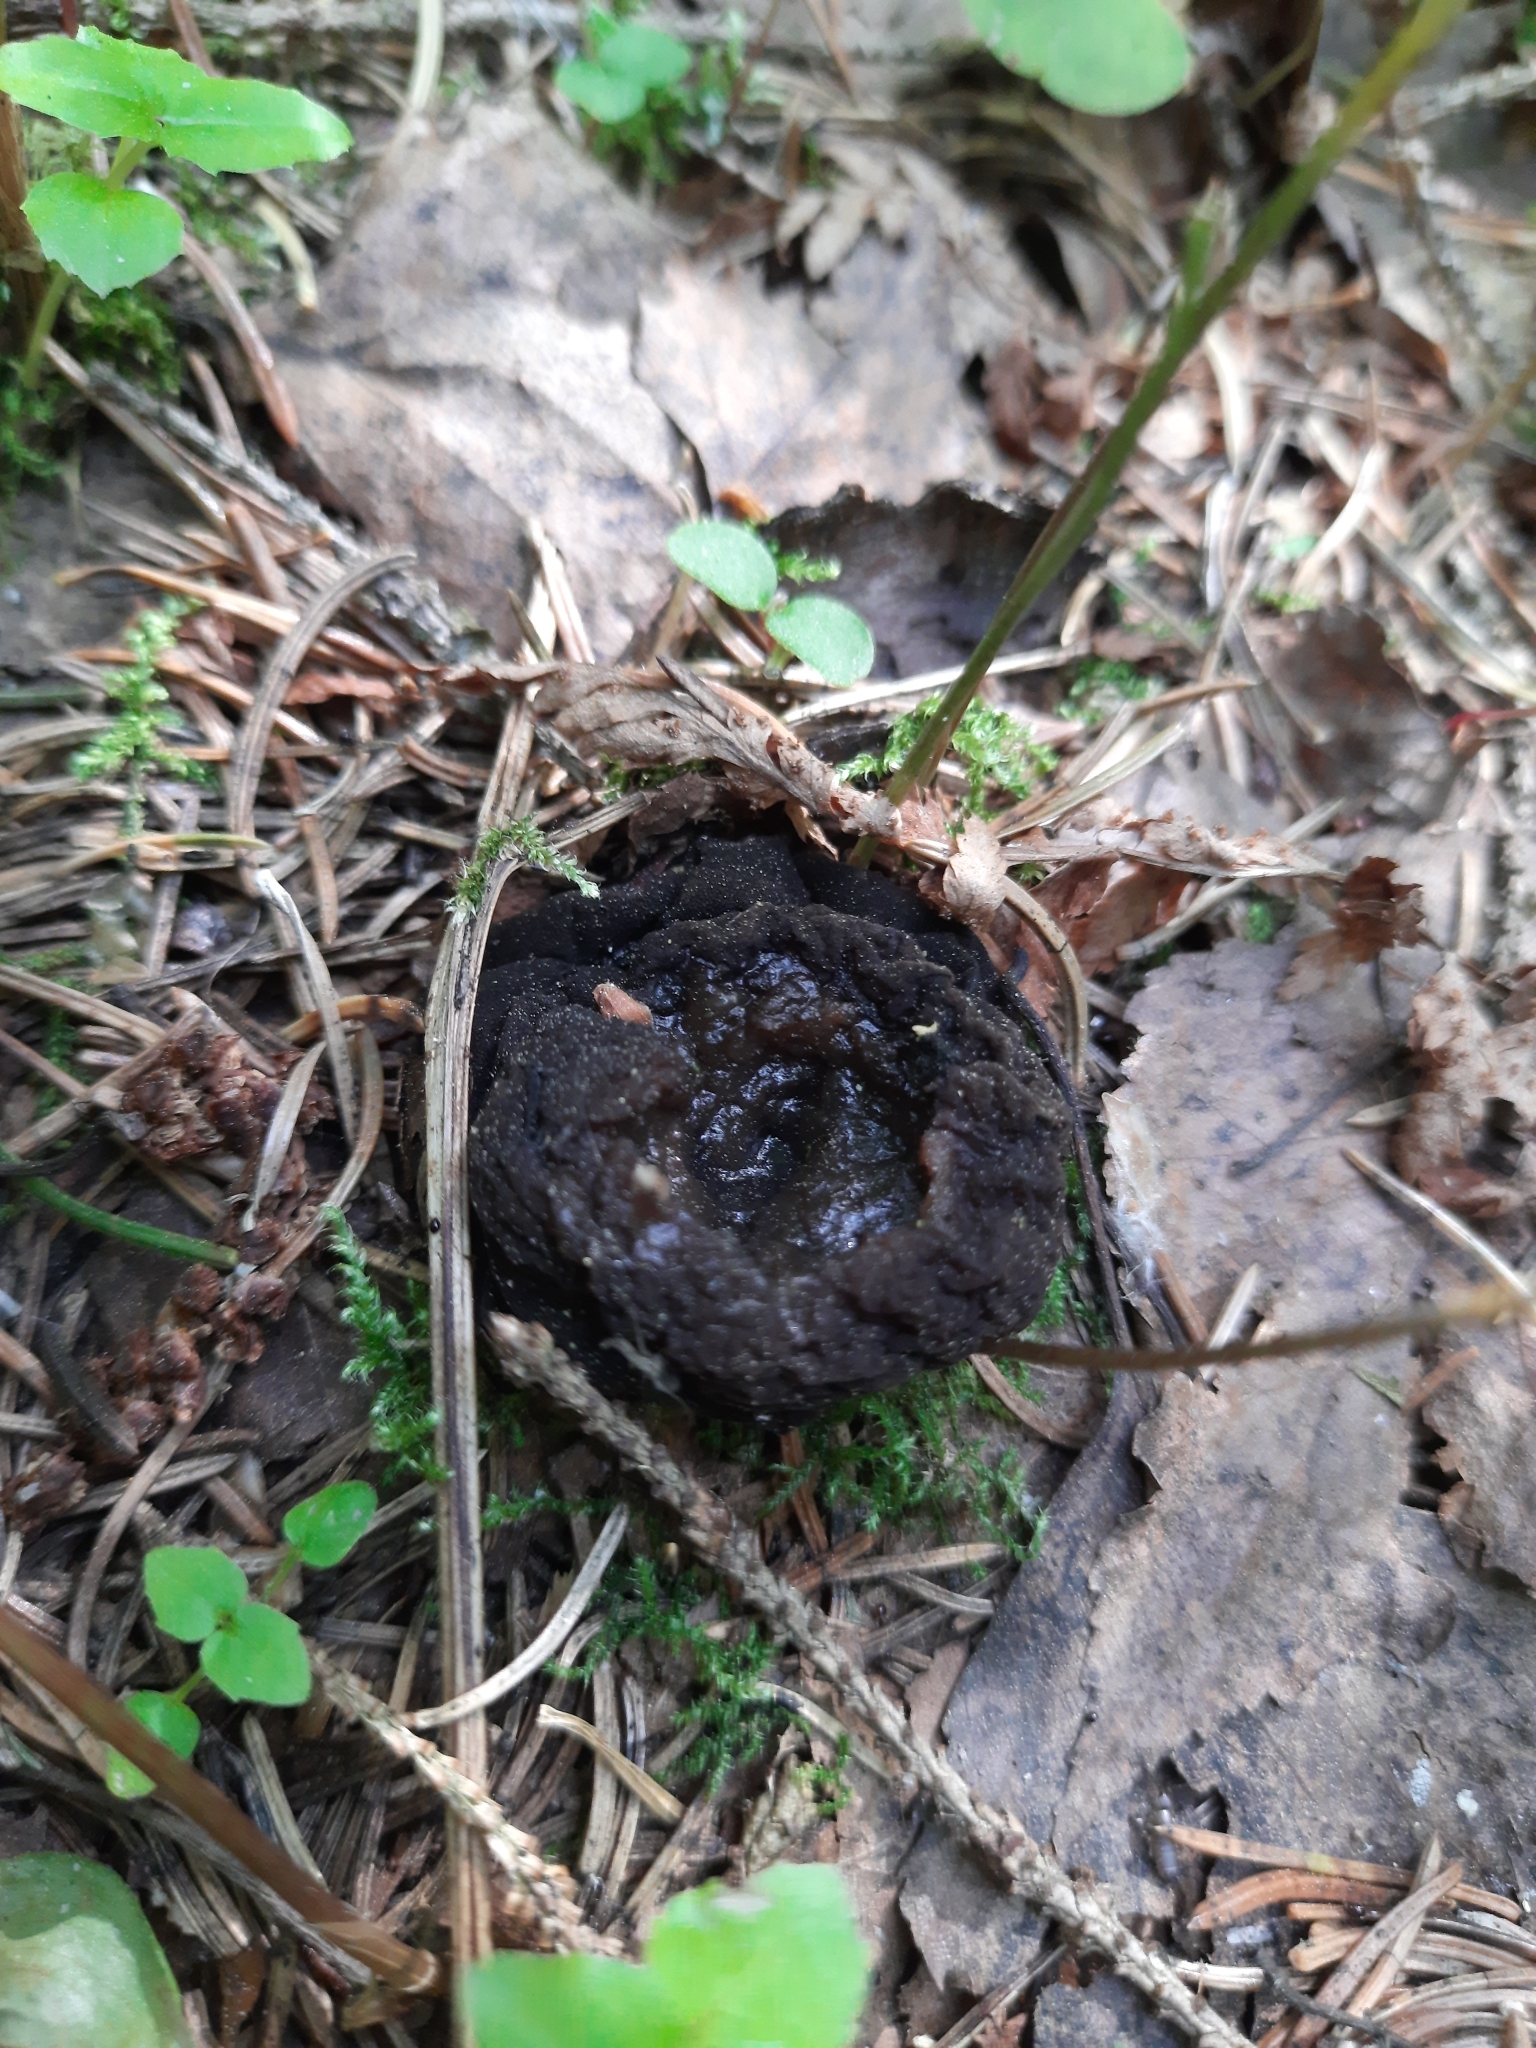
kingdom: Fungi
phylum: Ascomycota
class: Pezizomycetes
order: Pezizales
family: Sarcosomataceae
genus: Sarcosoma
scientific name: Sarcosoma globosum
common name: Charred-pancake cup
